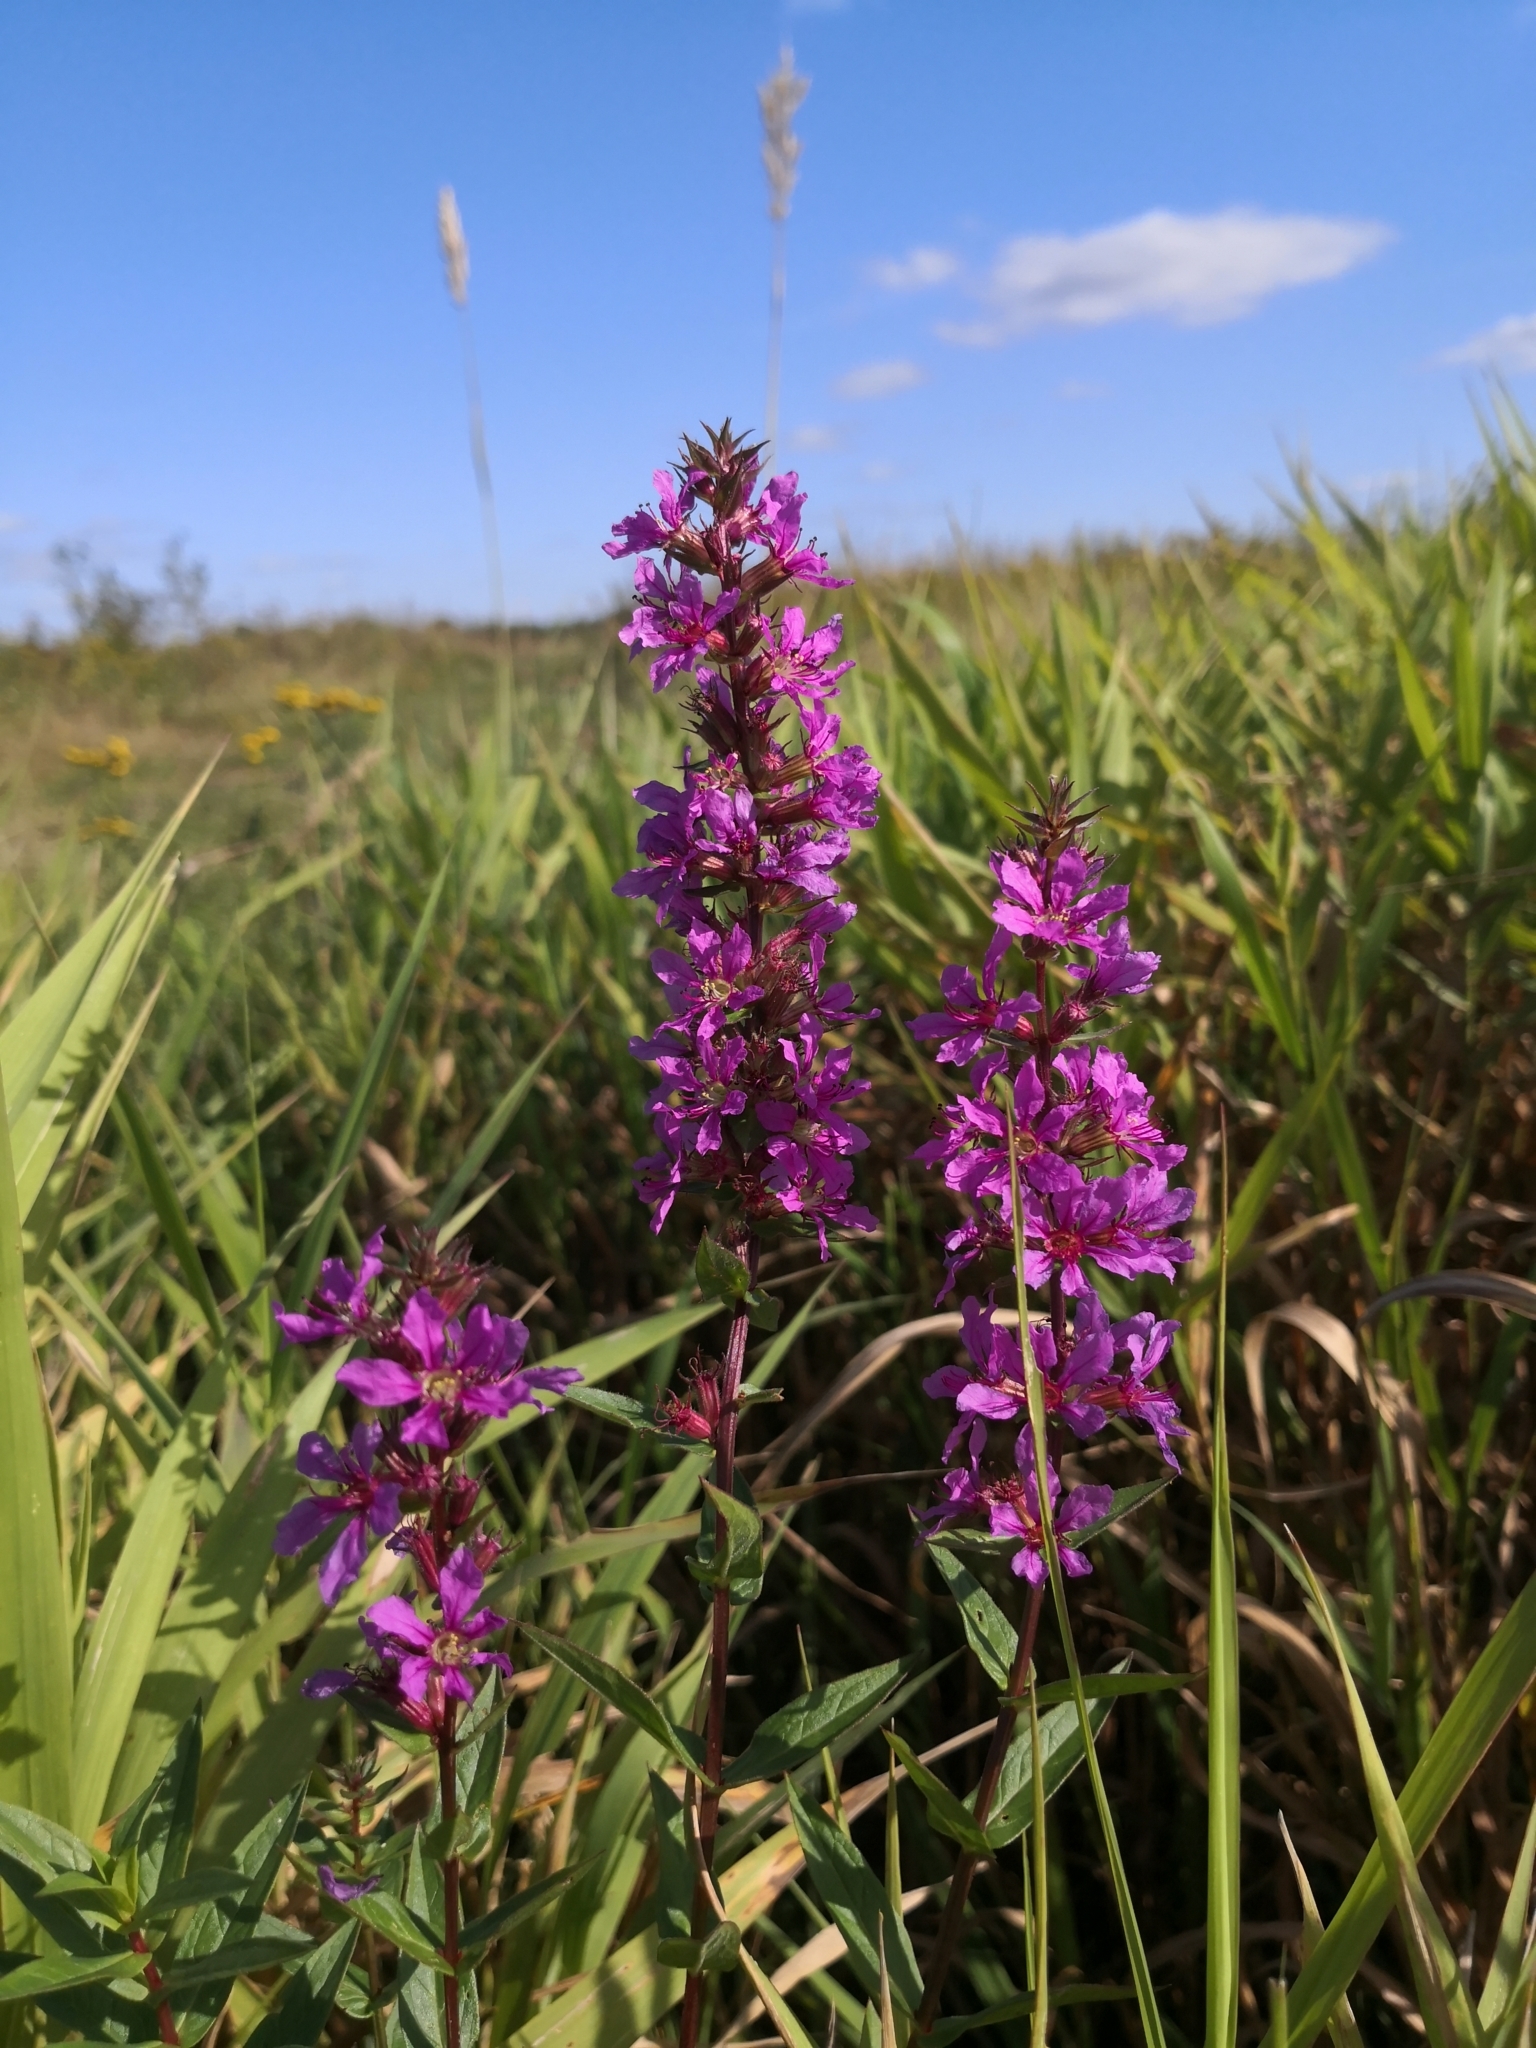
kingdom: Plantae
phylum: Tracheophyta
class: Magnoliopsida
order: Myrtales
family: Lythraceae
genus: Lythrum
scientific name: Lythrum salicaria
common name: Purple loosestrife
